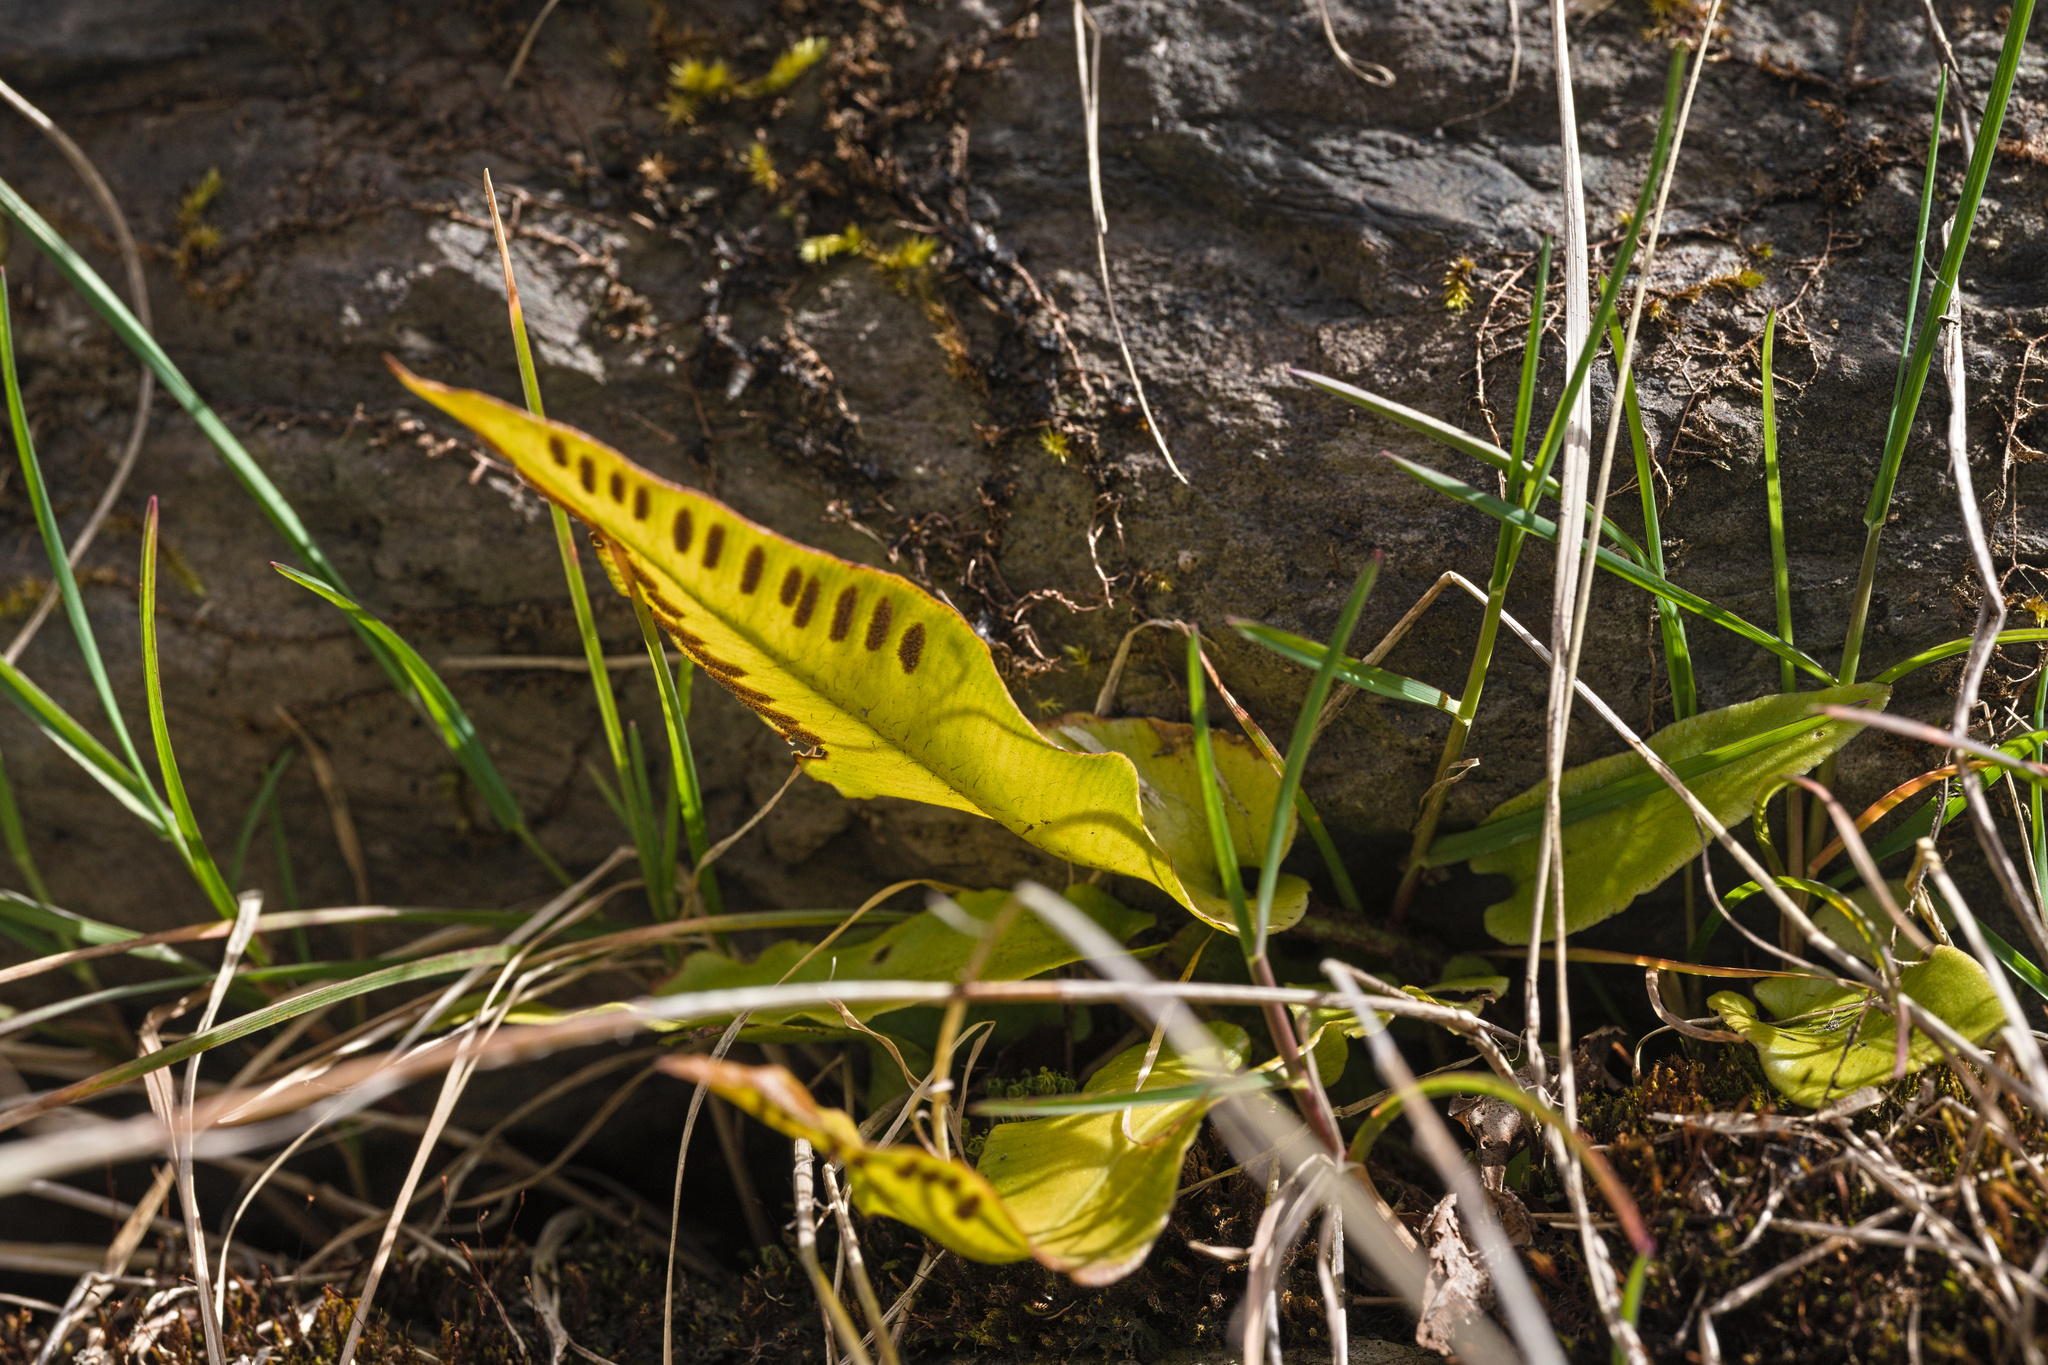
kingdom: Plantae
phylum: Tracheophyta
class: Polypodiopsida
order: Polypodiales
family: Aspleniaceae
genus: Asplenium
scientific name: Asplenium scolopendrium
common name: Hart's-tongue fern
